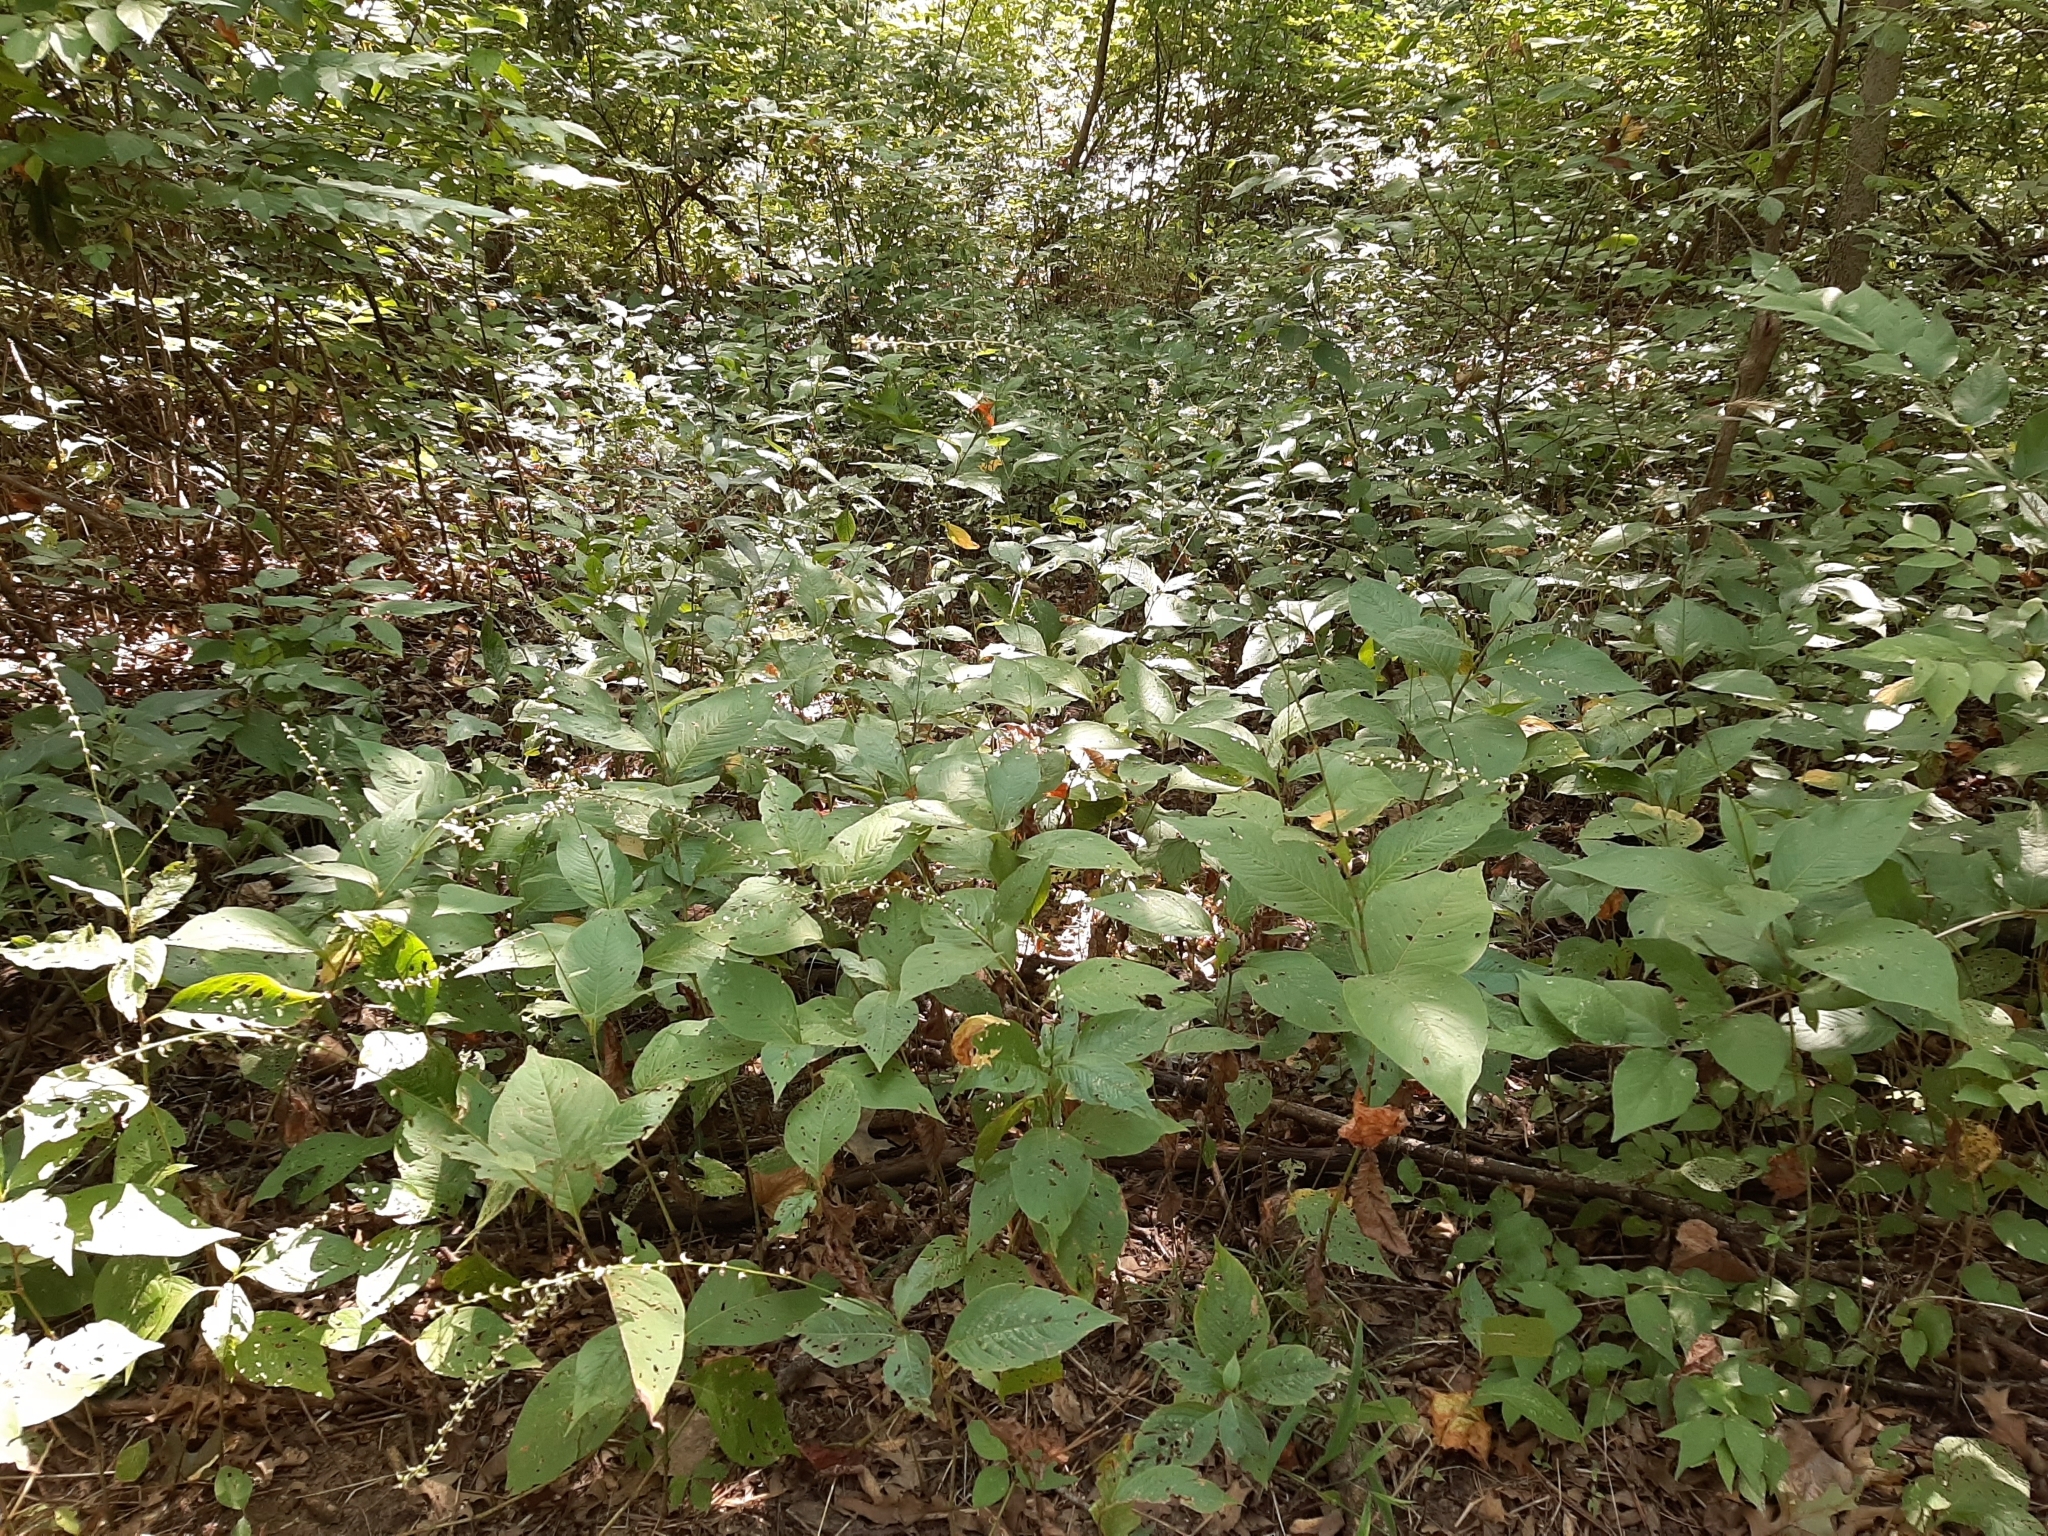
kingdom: Plantae
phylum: Tracheophyta
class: Magnoliopsida
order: Caryophyllales
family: Polygonaceae
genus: Persicaria
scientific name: Persicaria virginiana
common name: Jumpseed
